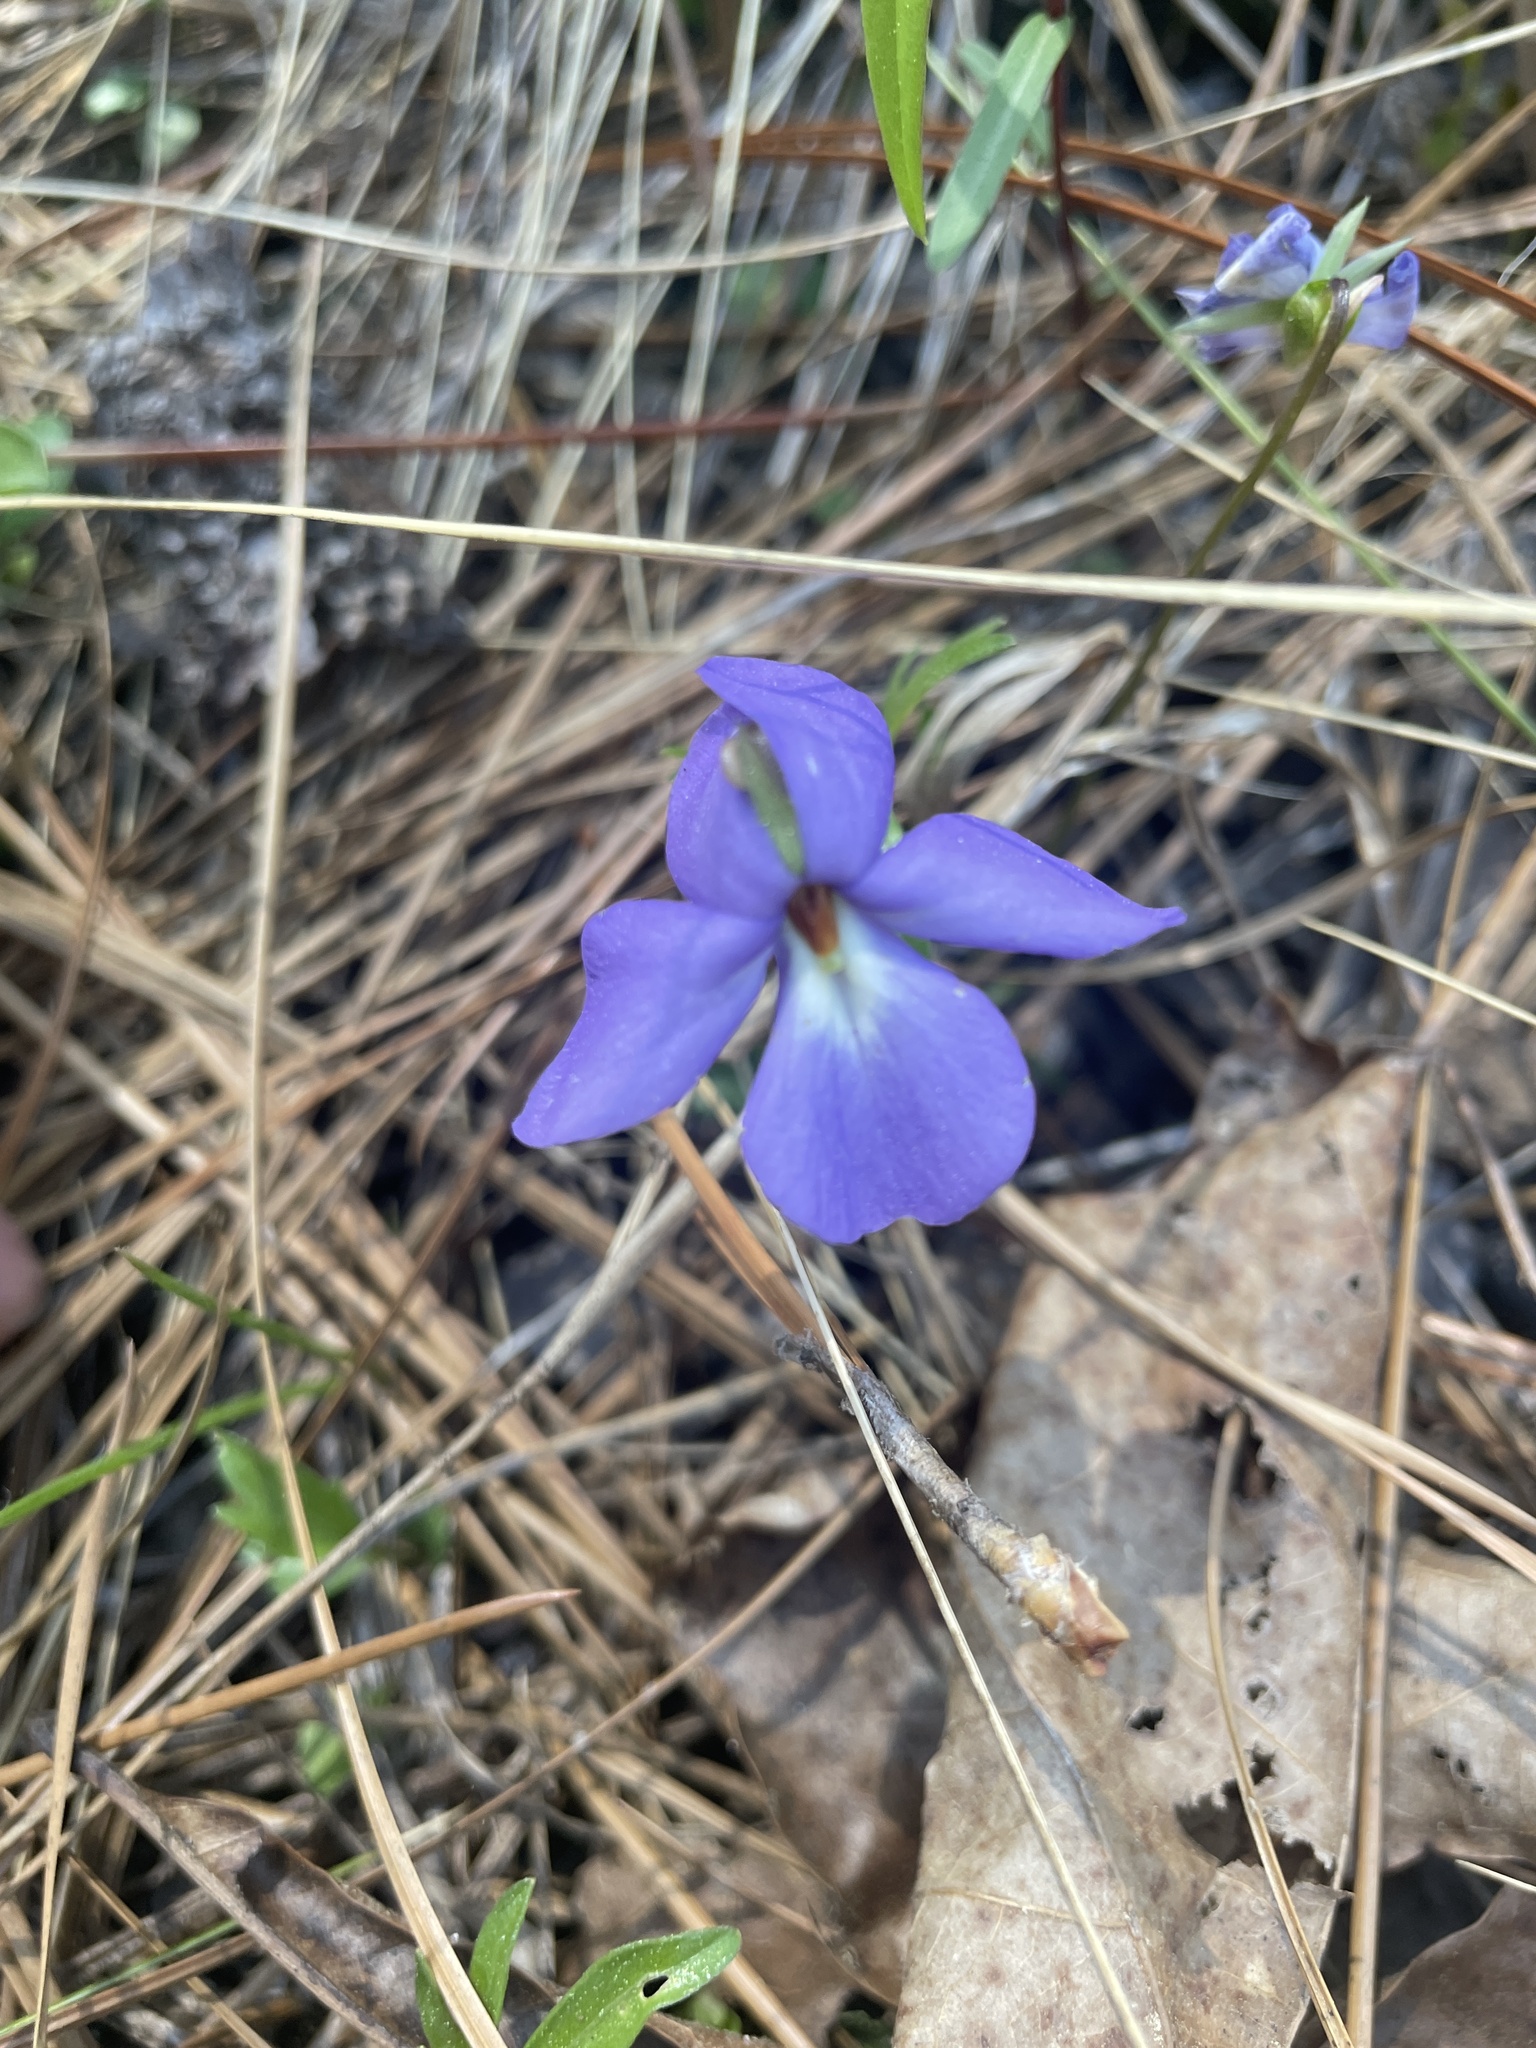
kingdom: Plantae
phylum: Tracheophyta
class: Magnoliopsida
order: Malpighiales
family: Violaceae
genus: Viola
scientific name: Viola pedata
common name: Pansy violet
